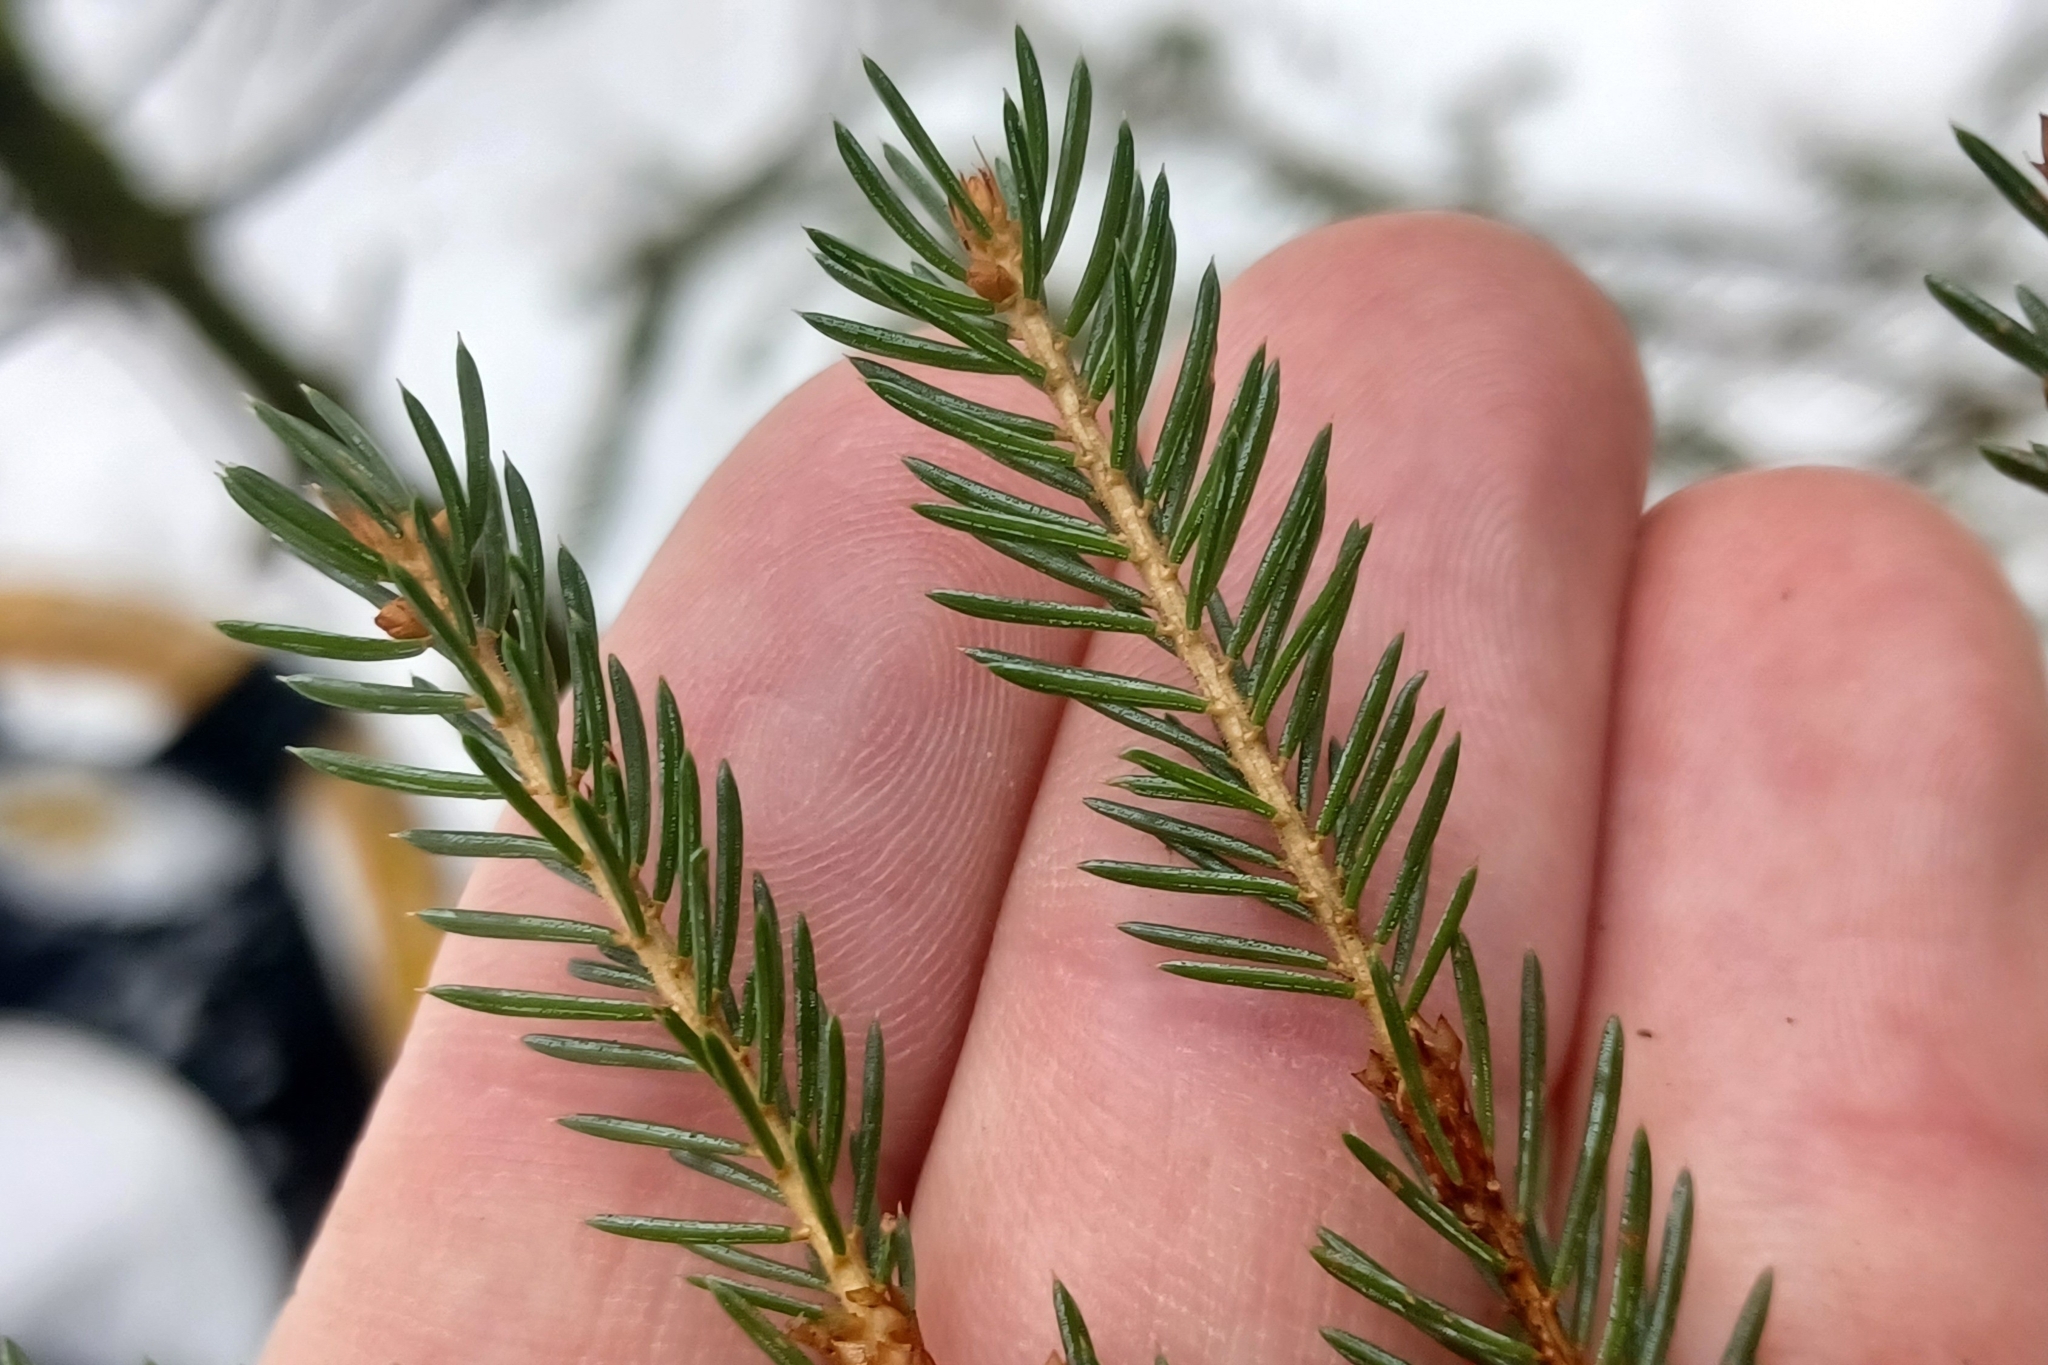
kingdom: Plantae
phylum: Tracheophyta
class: Pinopsida
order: Pinales
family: Pinaceae
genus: Picea
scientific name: Picea rubens
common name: Red spruce
